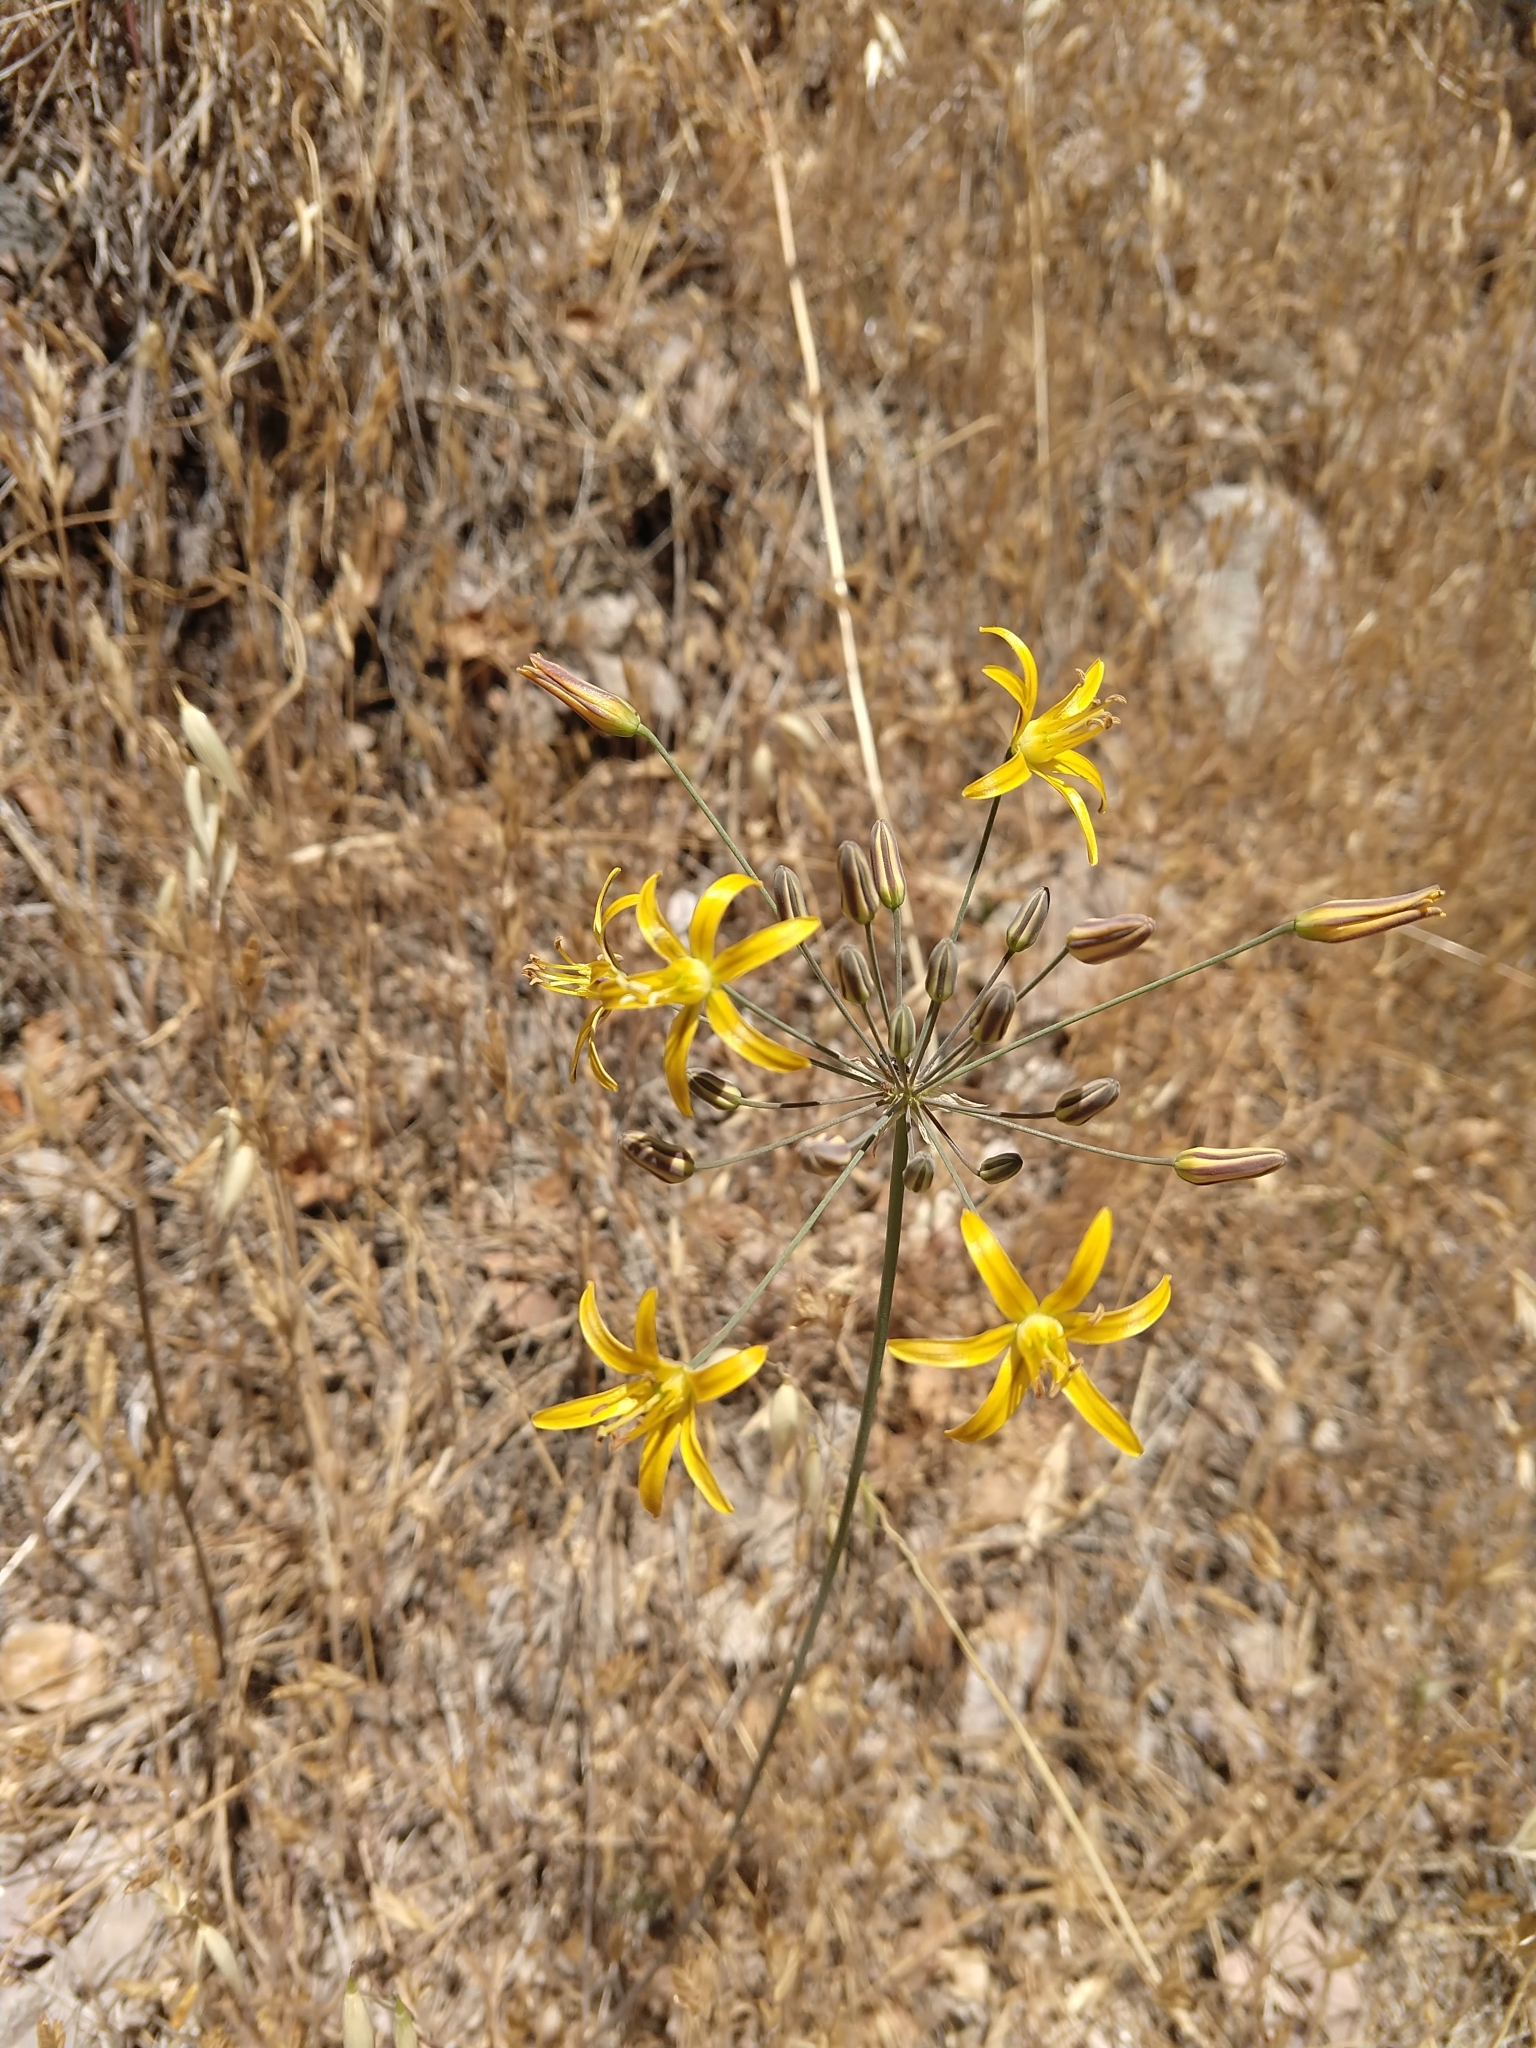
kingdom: Plantae
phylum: Tracheophyta
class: Liliopsida
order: Asparagales
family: Asparagaceae
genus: Bloomeria
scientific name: Bloomeria crocea
